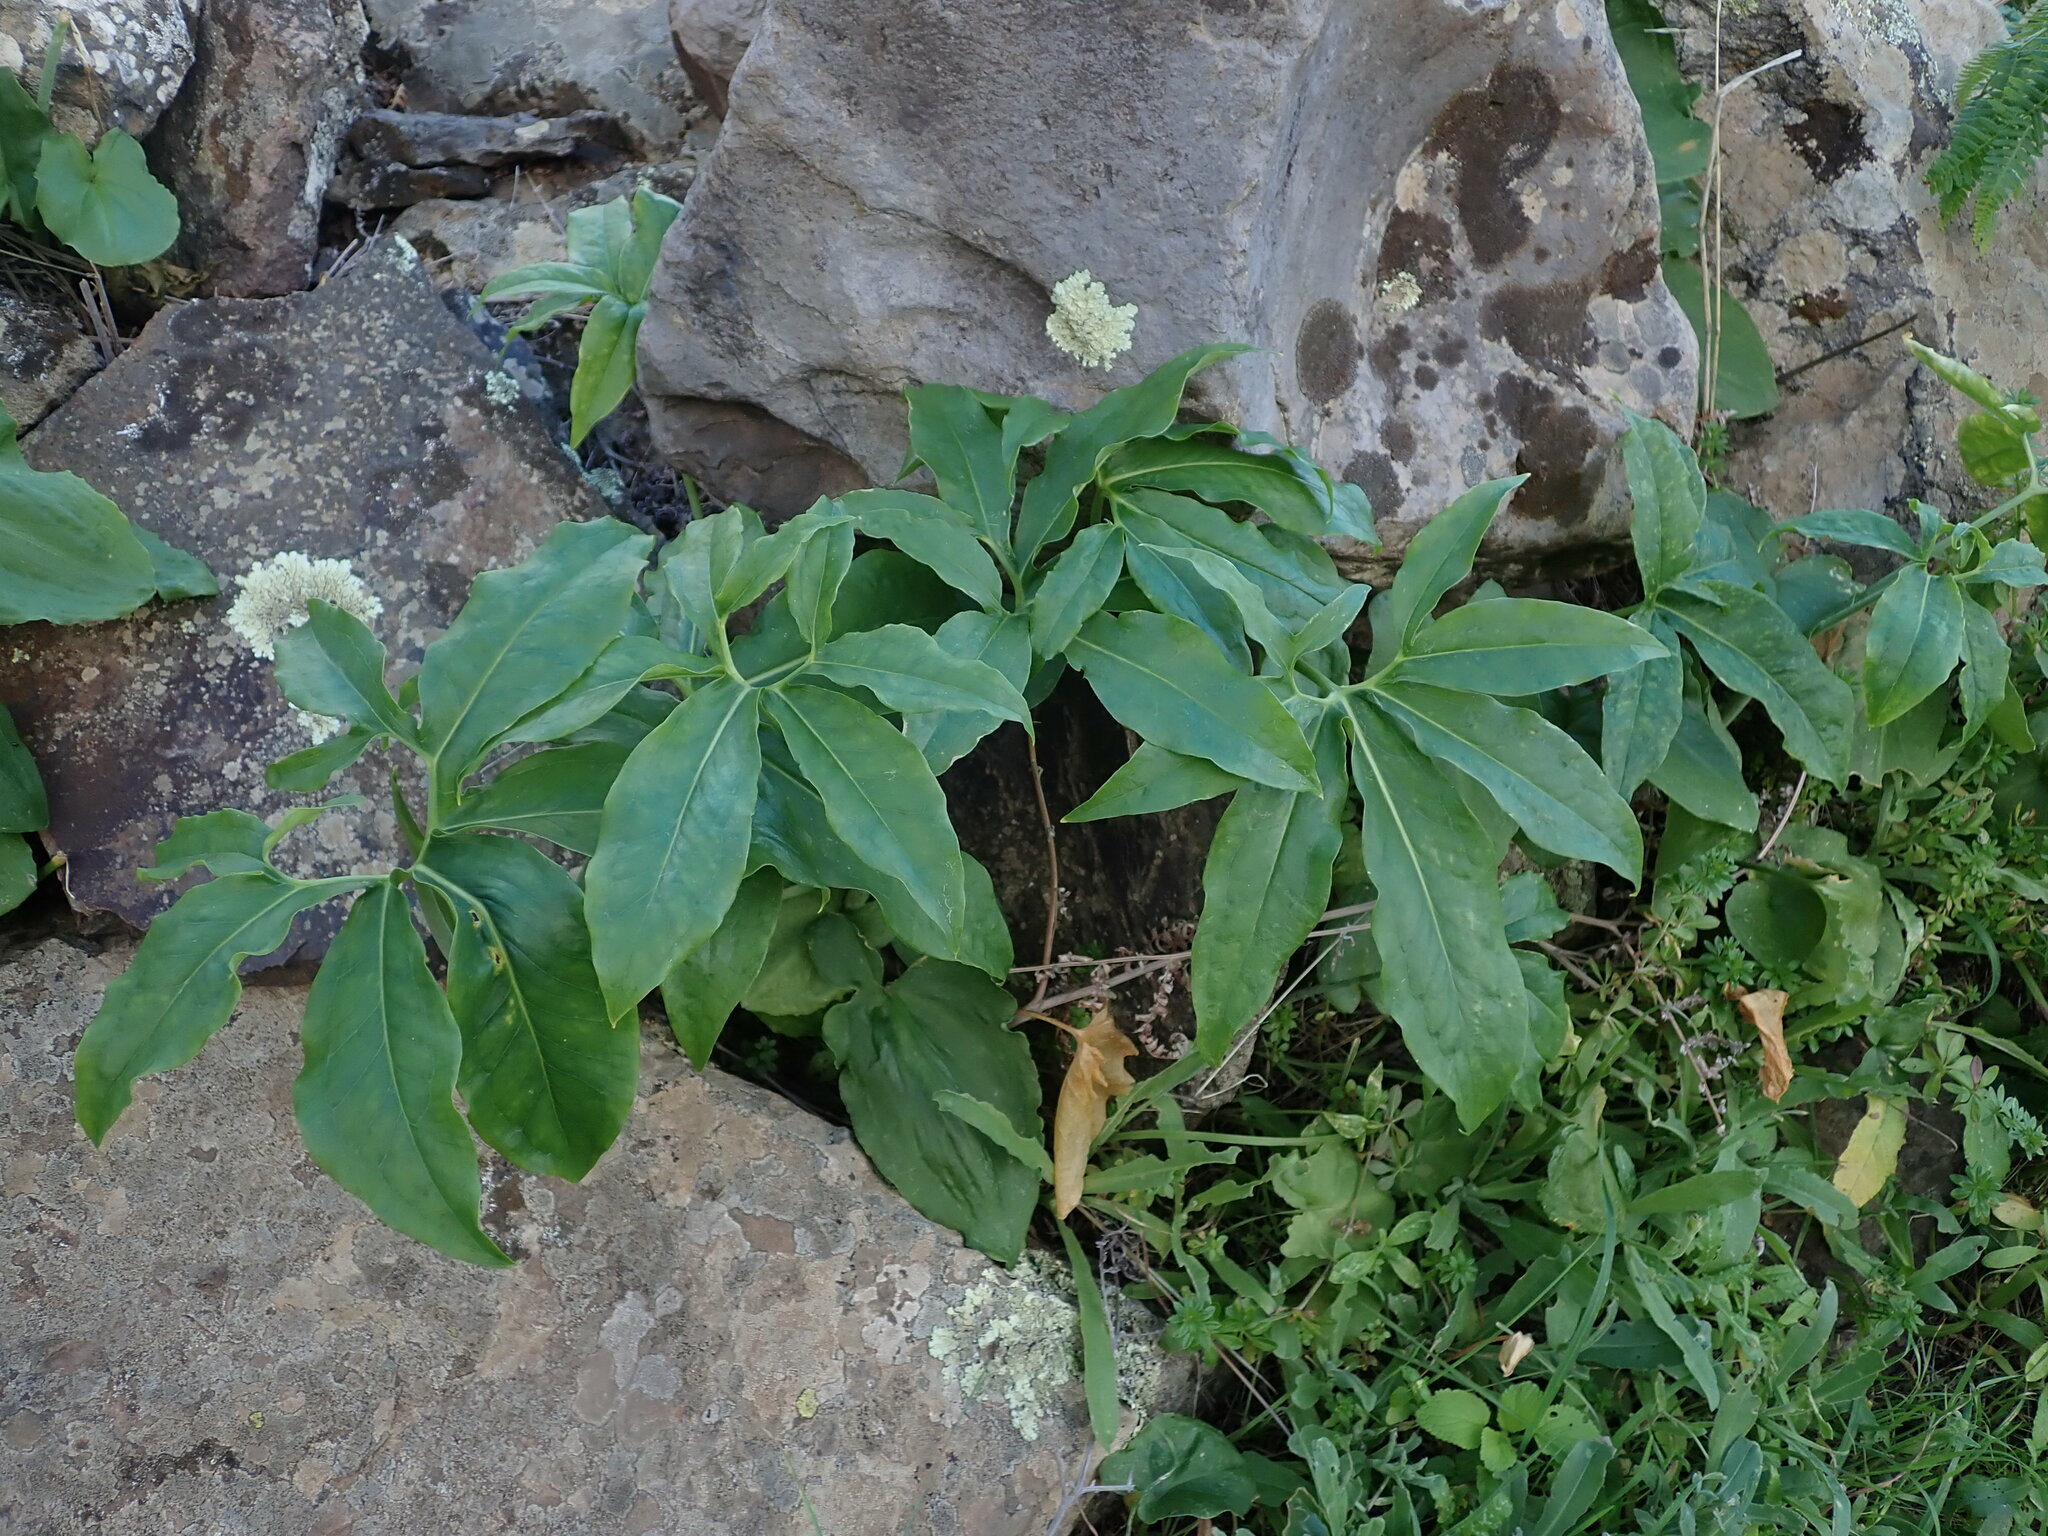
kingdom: Plantae
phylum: Tracheophyta
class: Liliopsida
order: Alismatales
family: Araceae
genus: Dracunculus
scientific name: Dracunculus canariensis
